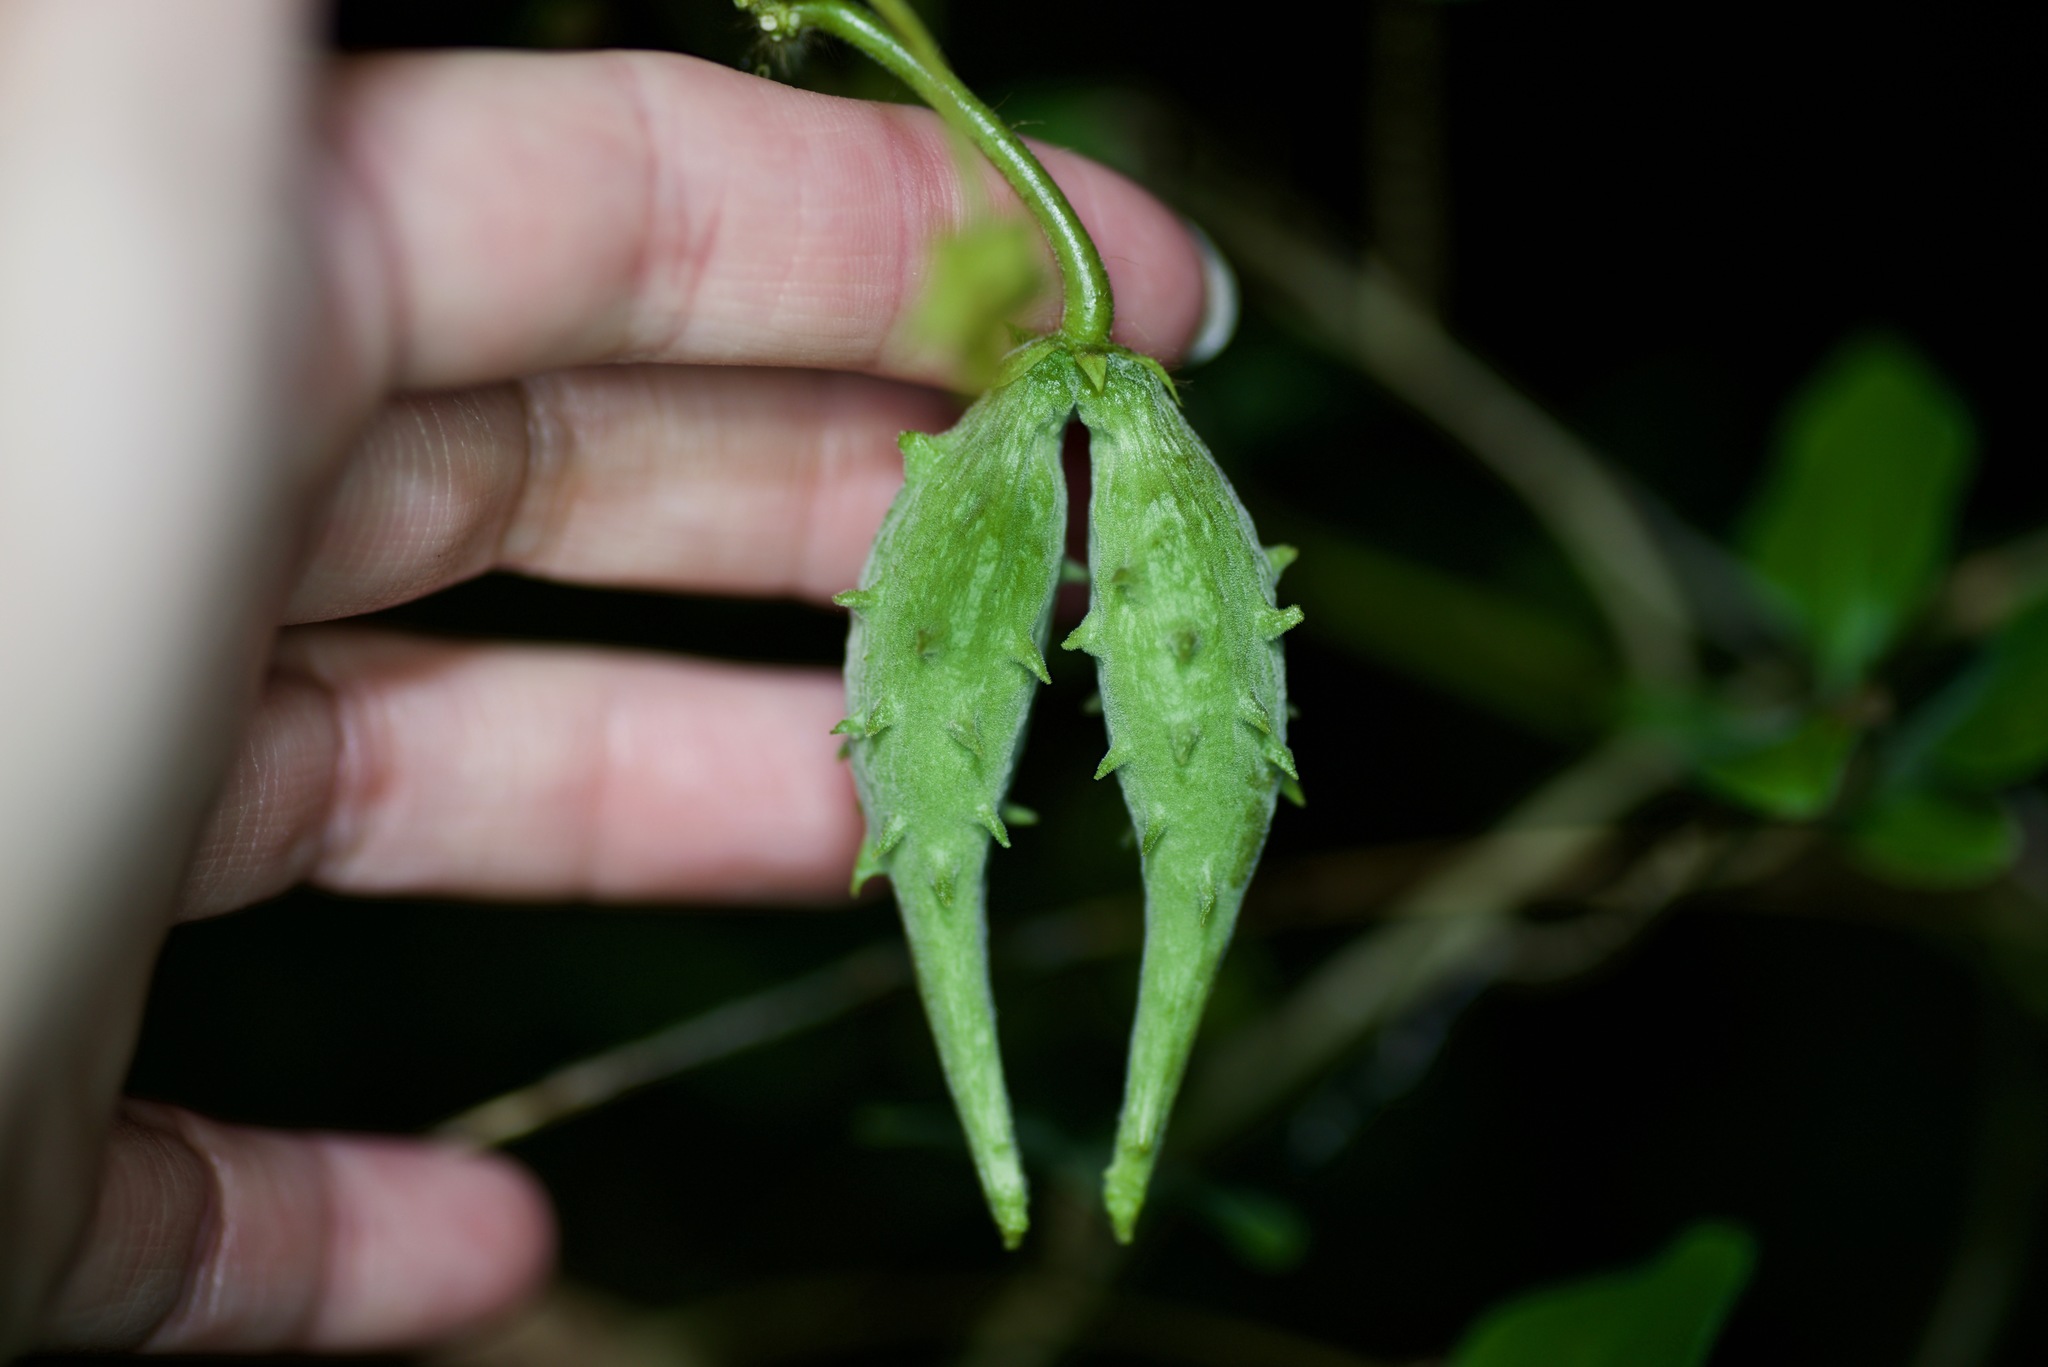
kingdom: Plantae
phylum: Tracheophyta
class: Magnoliopsida
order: Gentianales
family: Apocynaceae
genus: Dictyanthus
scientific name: Dictyanthus reticulatus
